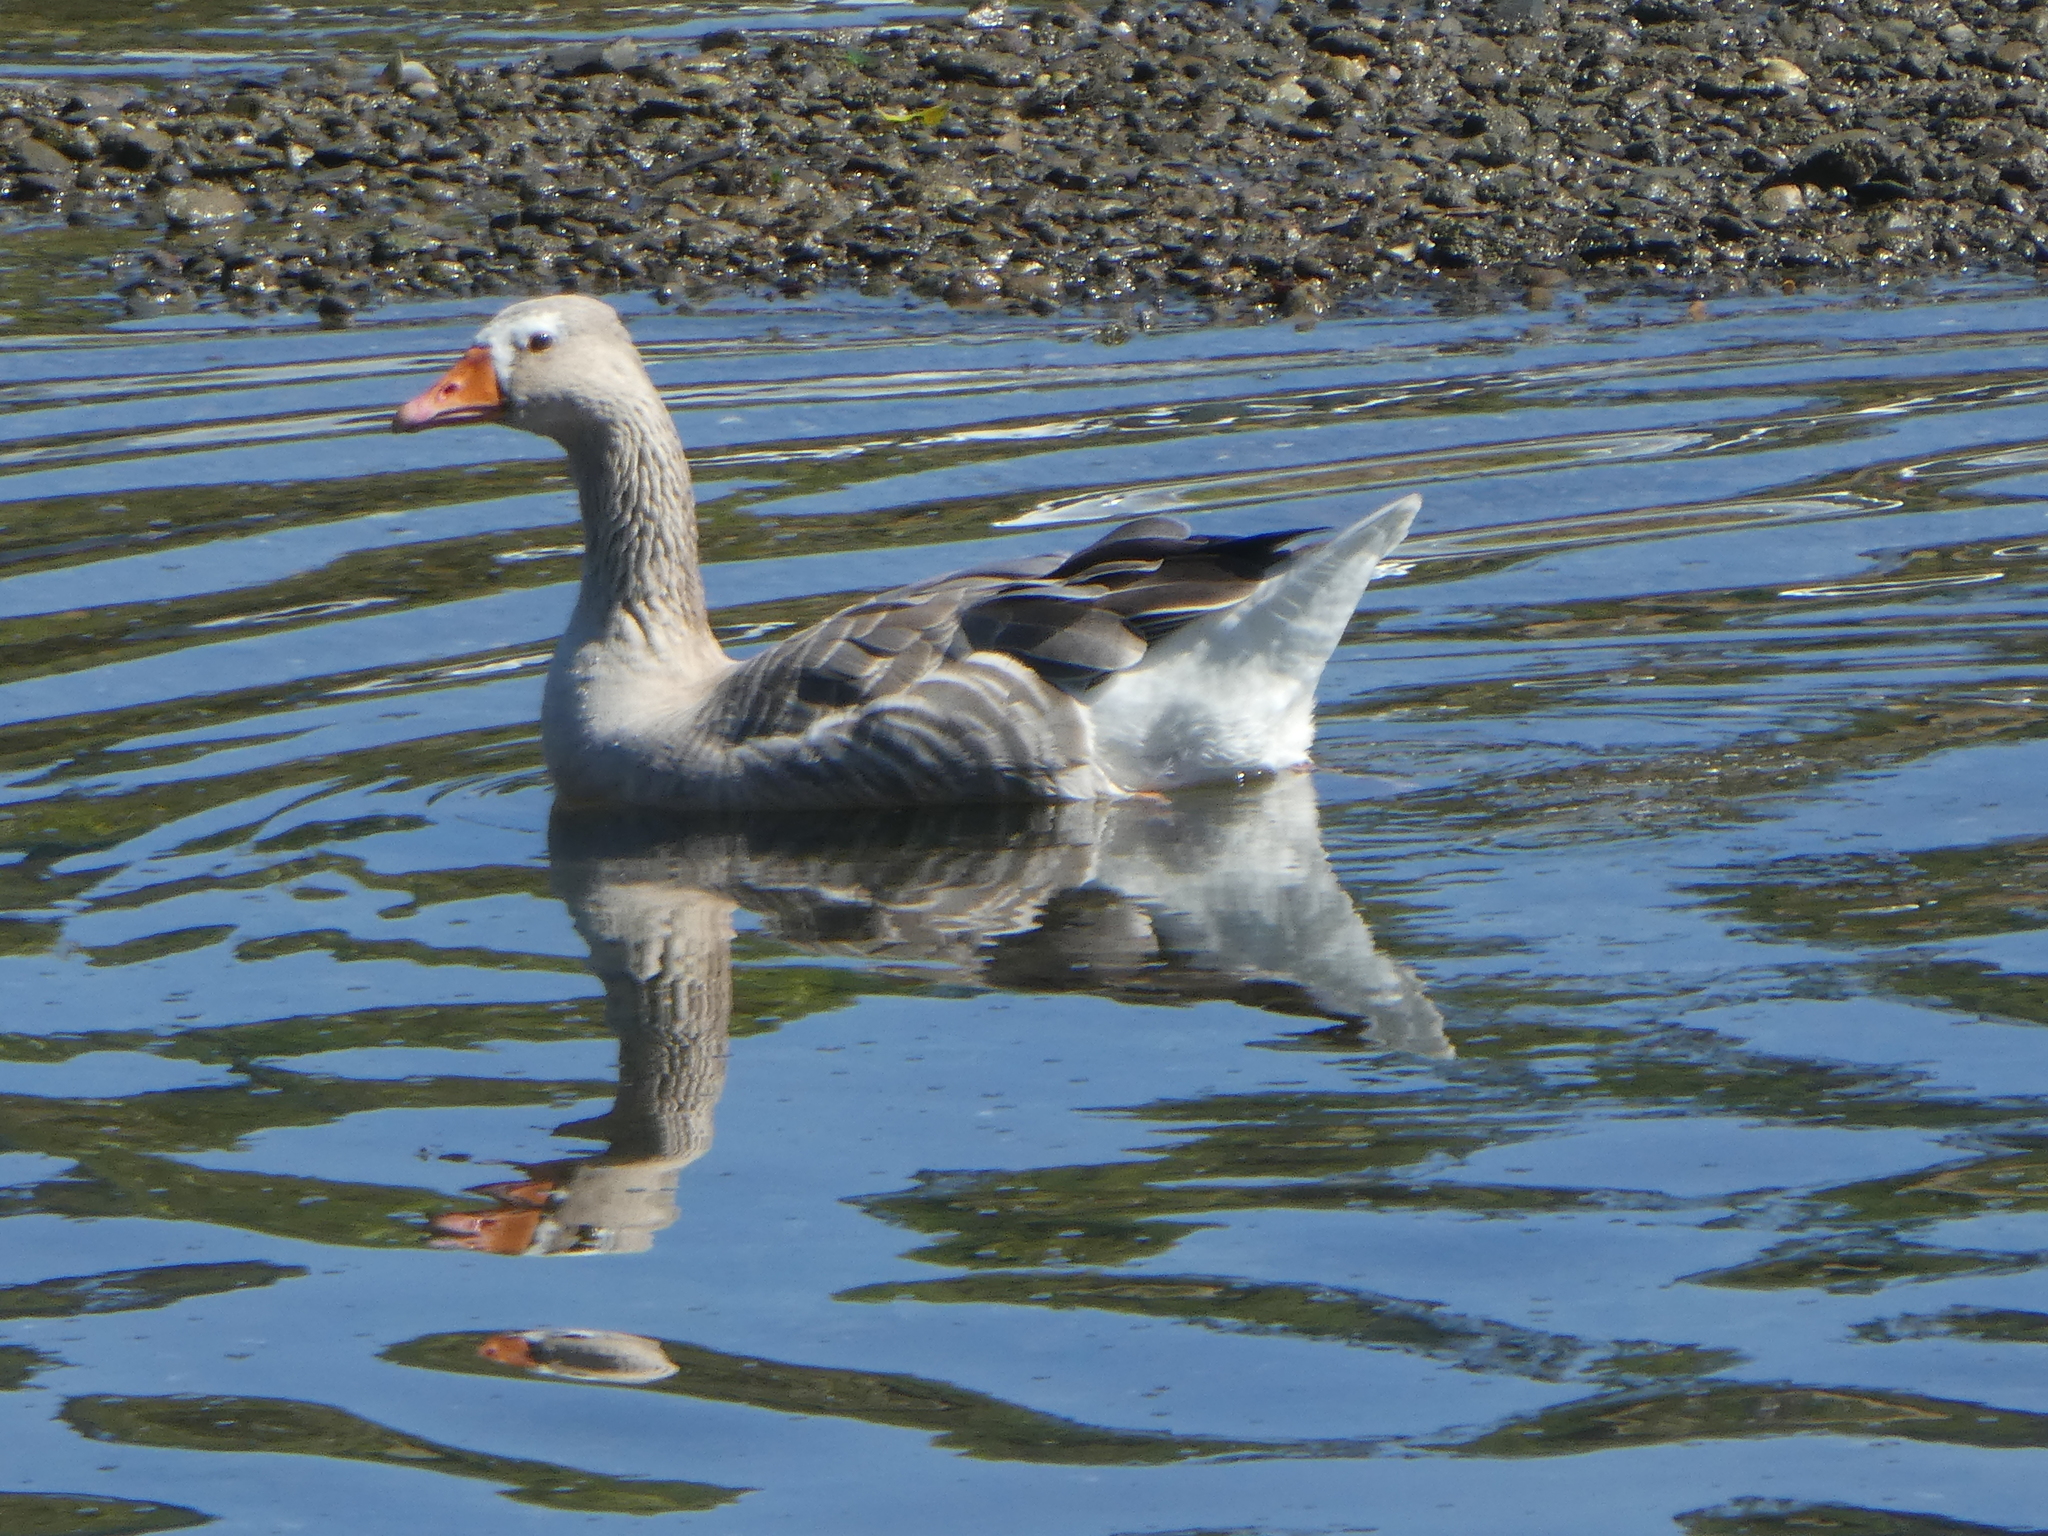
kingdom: Animalia
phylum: Chordata
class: Aves
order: Anseriformes
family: Anatidae
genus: Anser
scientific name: Anser anser
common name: Greylag goose
